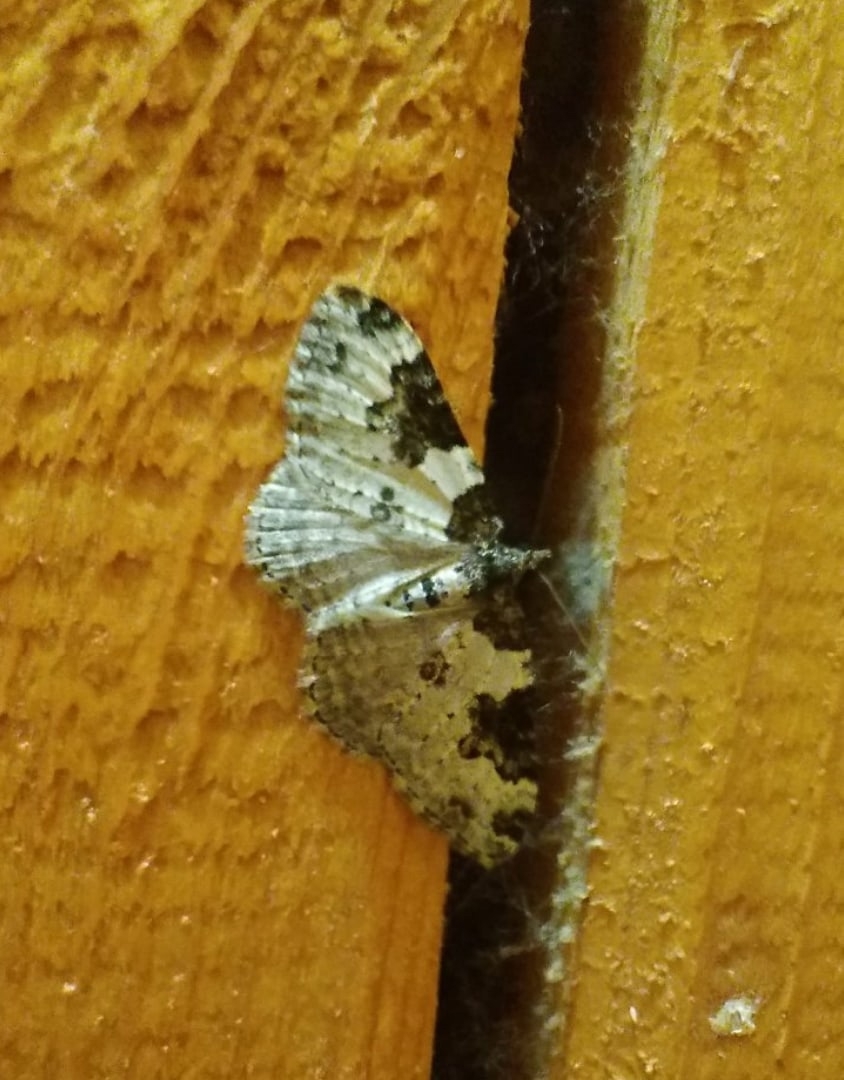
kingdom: Animalia
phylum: Arthropoda
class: Insecta
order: Lepidoptera
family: Geometridae
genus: Xanthorhoe
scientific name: Xanthorhoe fluctuata
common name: Garden carpet
